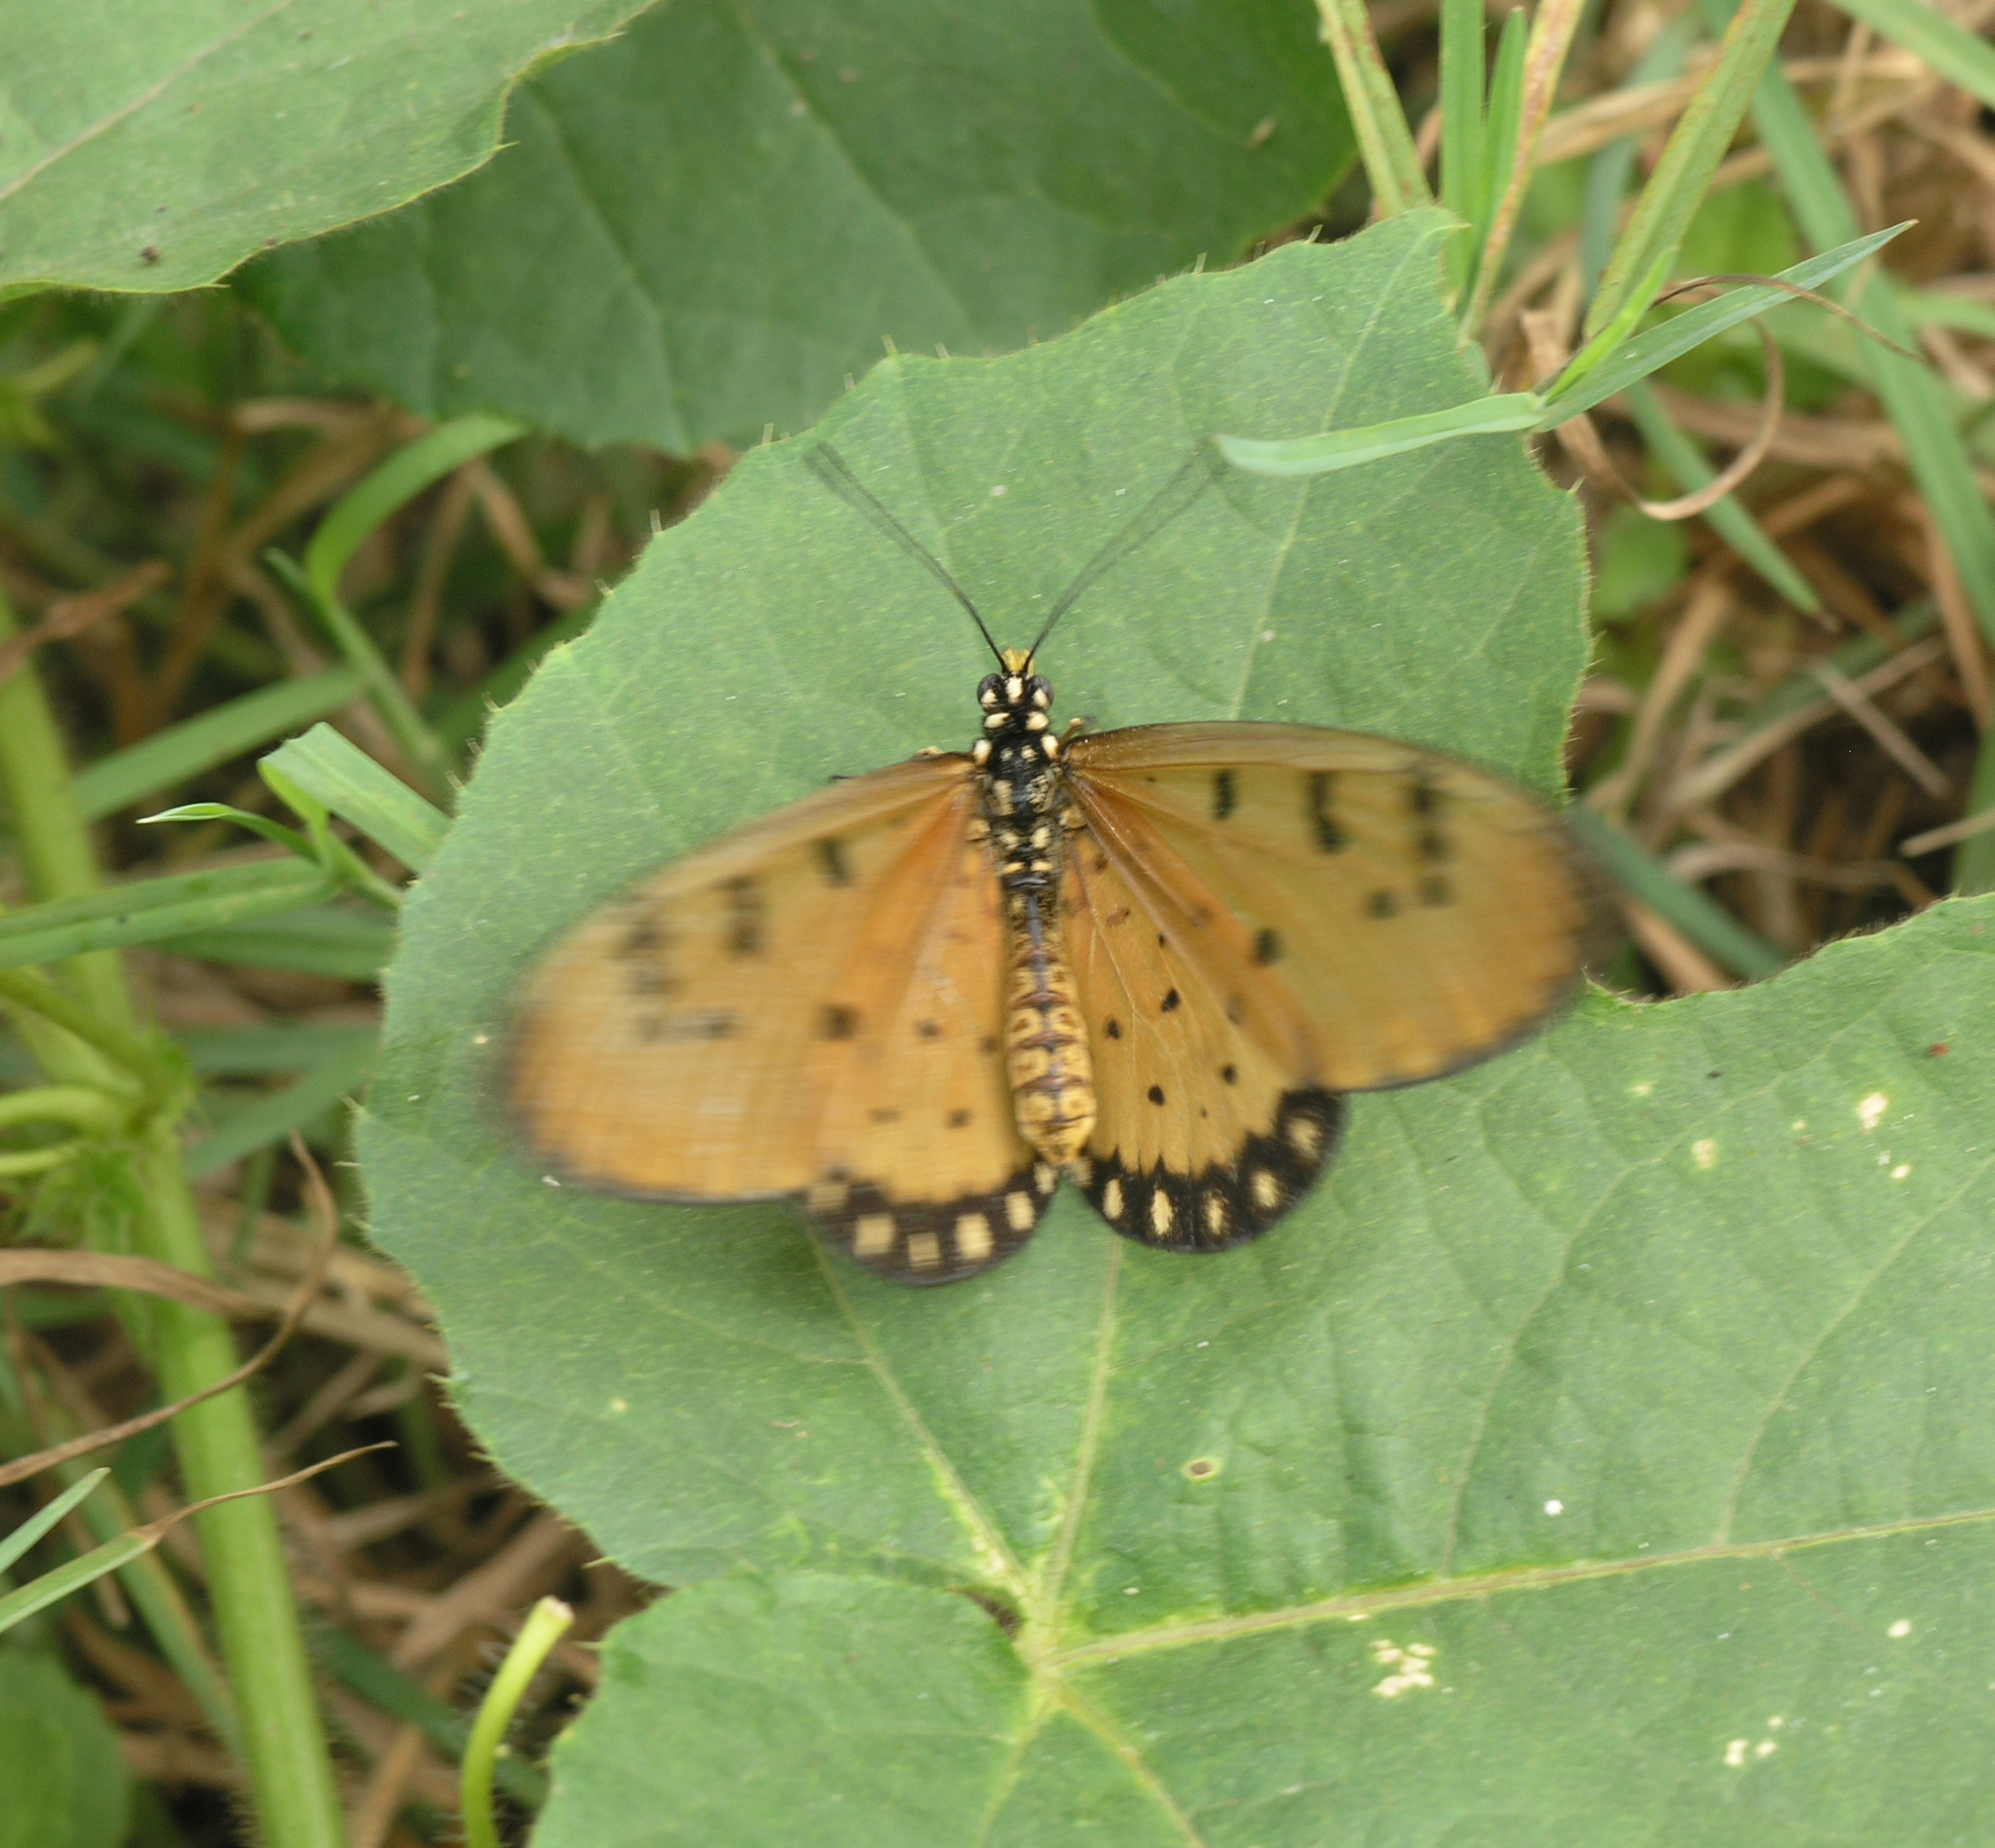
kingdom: Animalia
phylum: Arthropoda
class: Insecta
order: Lepidoptera
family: Nymphalidae
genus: Acraea
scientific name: Acraea terpsicore
